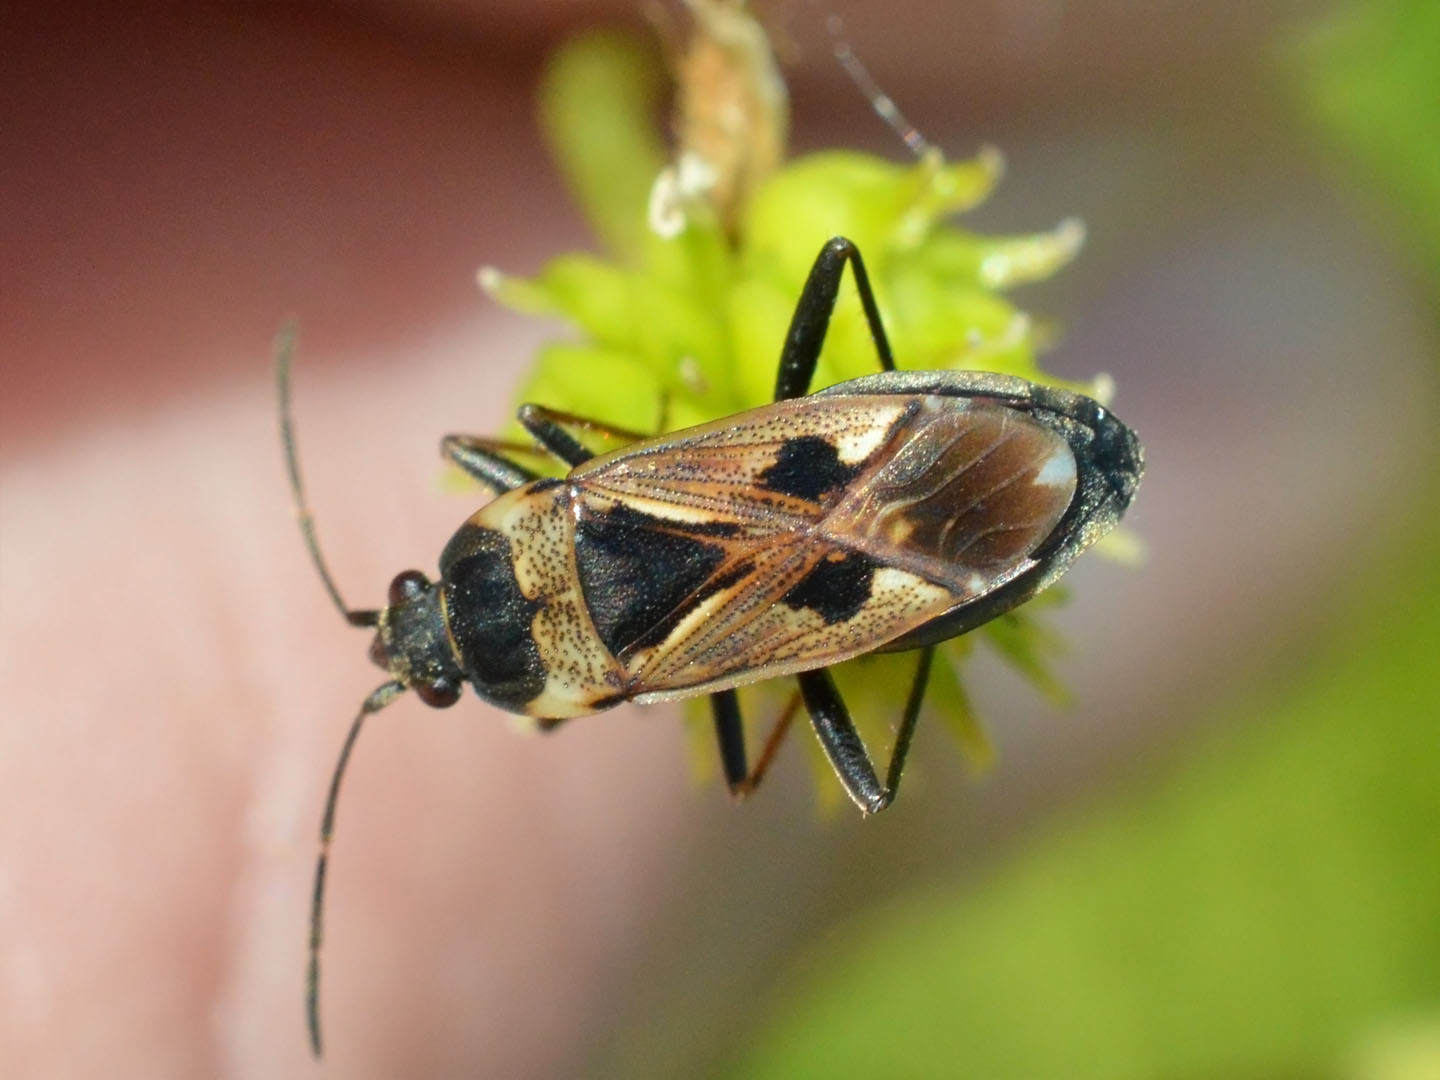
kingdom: Animalia
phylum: Arthropoda
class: Insecta
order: Hemiptera
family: Rhyparochromidae
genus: Rhyparochromus
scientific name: Rhyparochromus vulgaris
